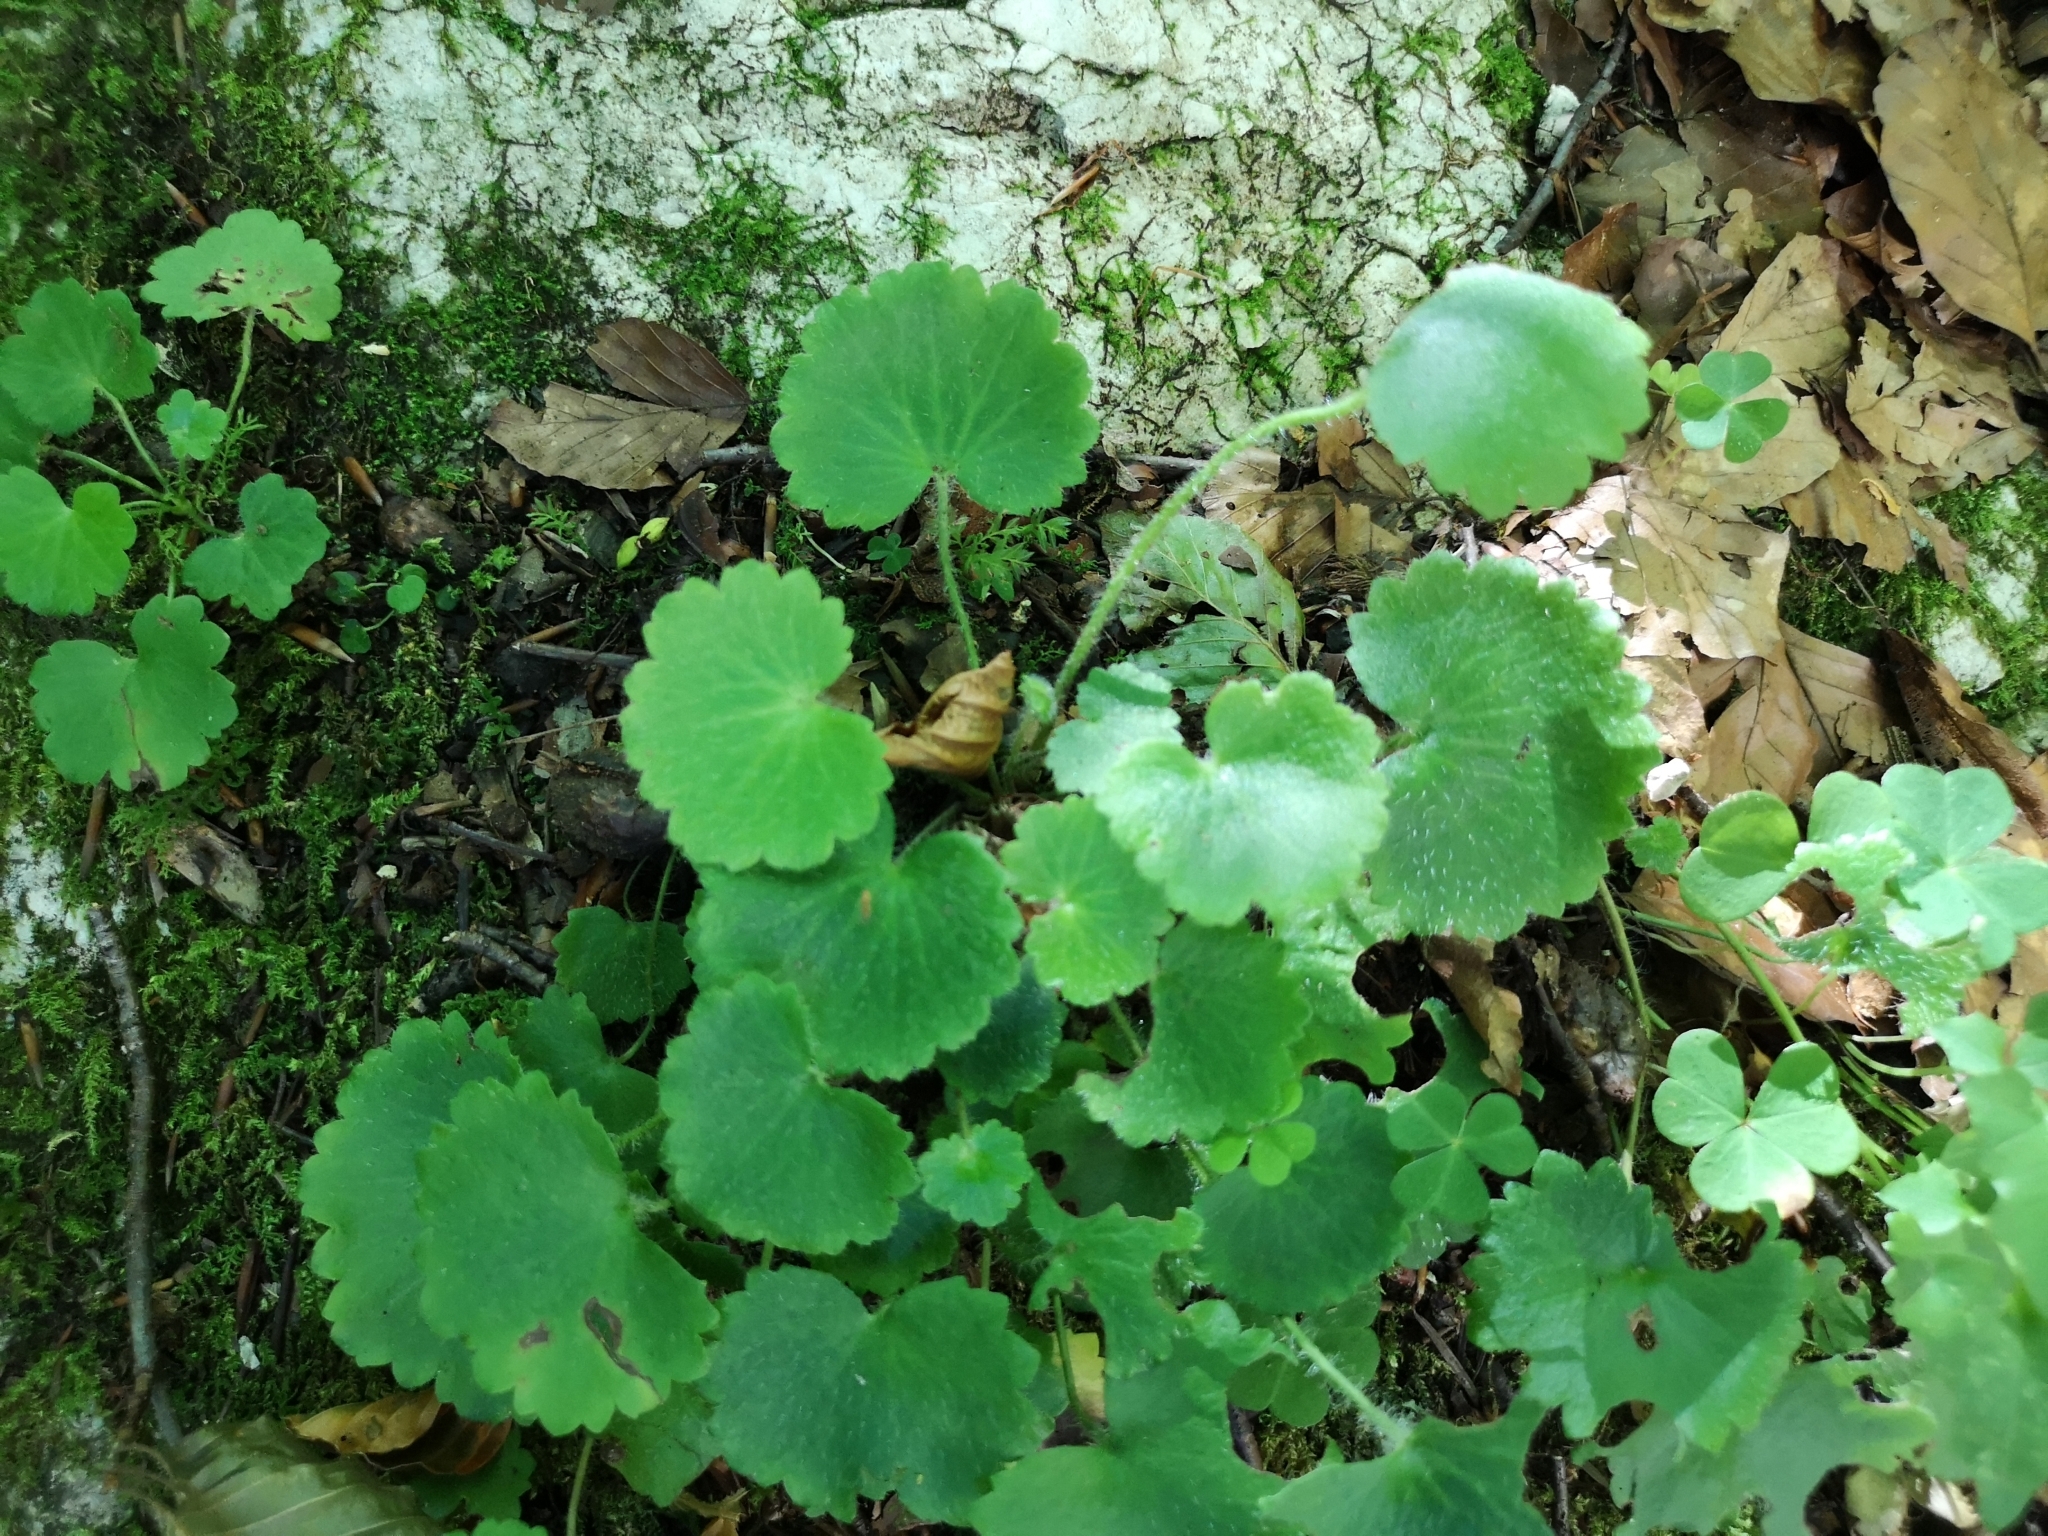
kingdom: Plantae
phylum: Tracheophyta
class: Magnoliopsida
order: Saxifragales
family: Saxifragaceae
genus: Saxifraga
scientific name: Saxifraga rotundifolia
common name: Round-leaved saxifrage
